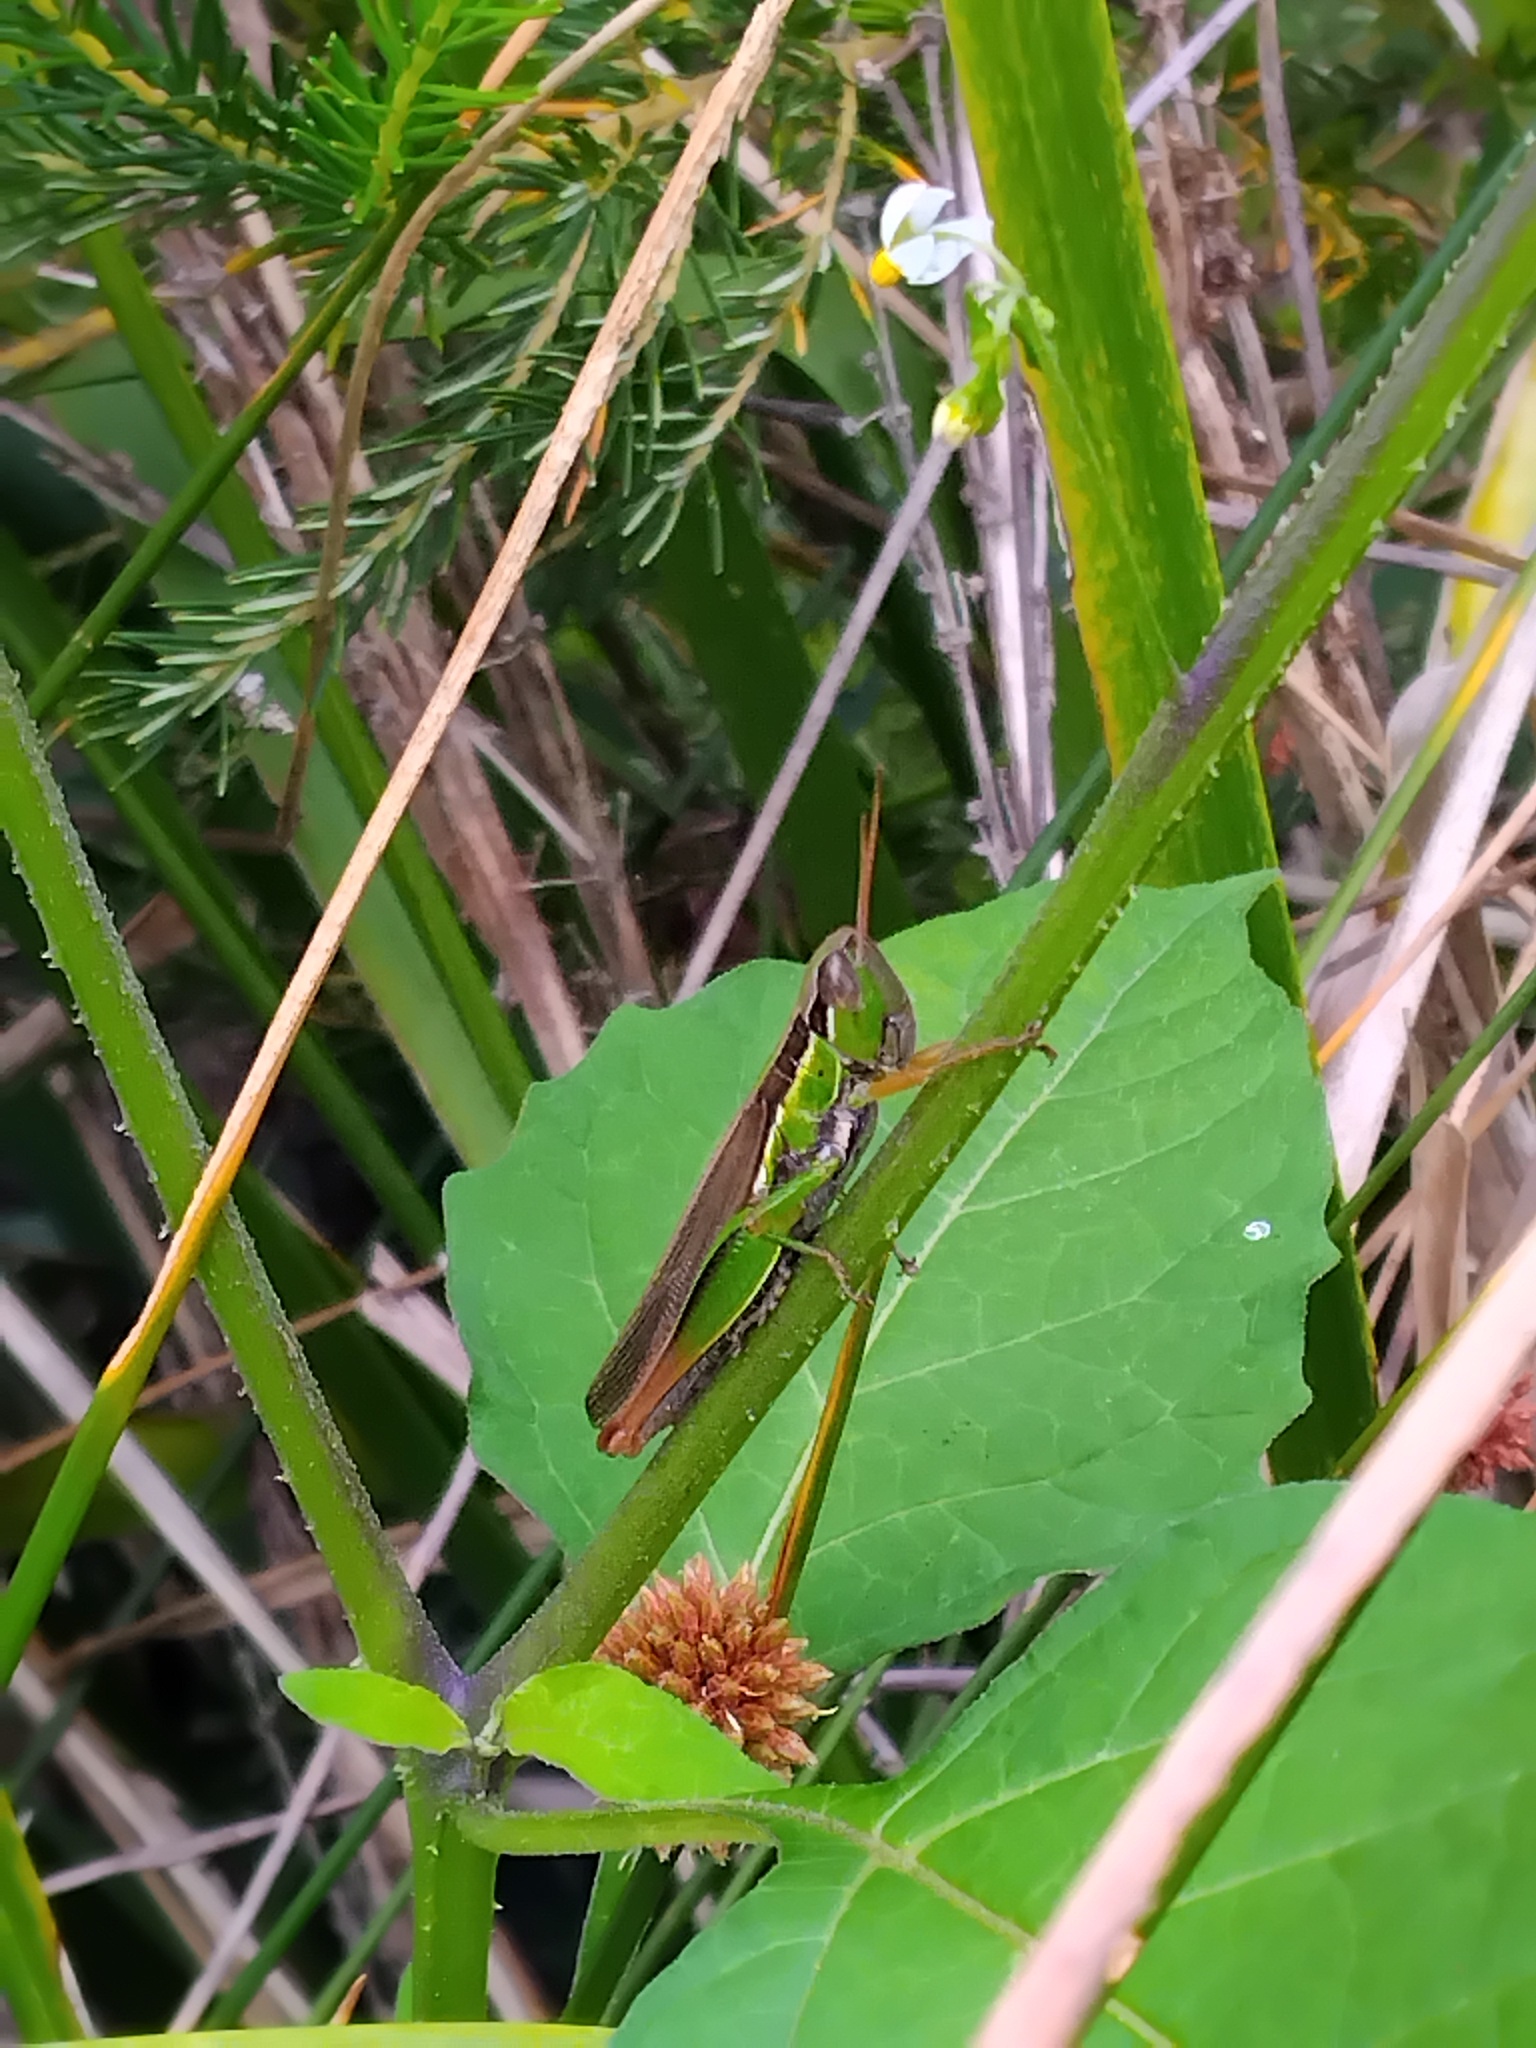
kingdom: Animalia
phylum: Arthropoda
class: Insecta
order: Orthoptera
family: Acrididae
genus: Bermius
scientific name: Bermius brachycerus
